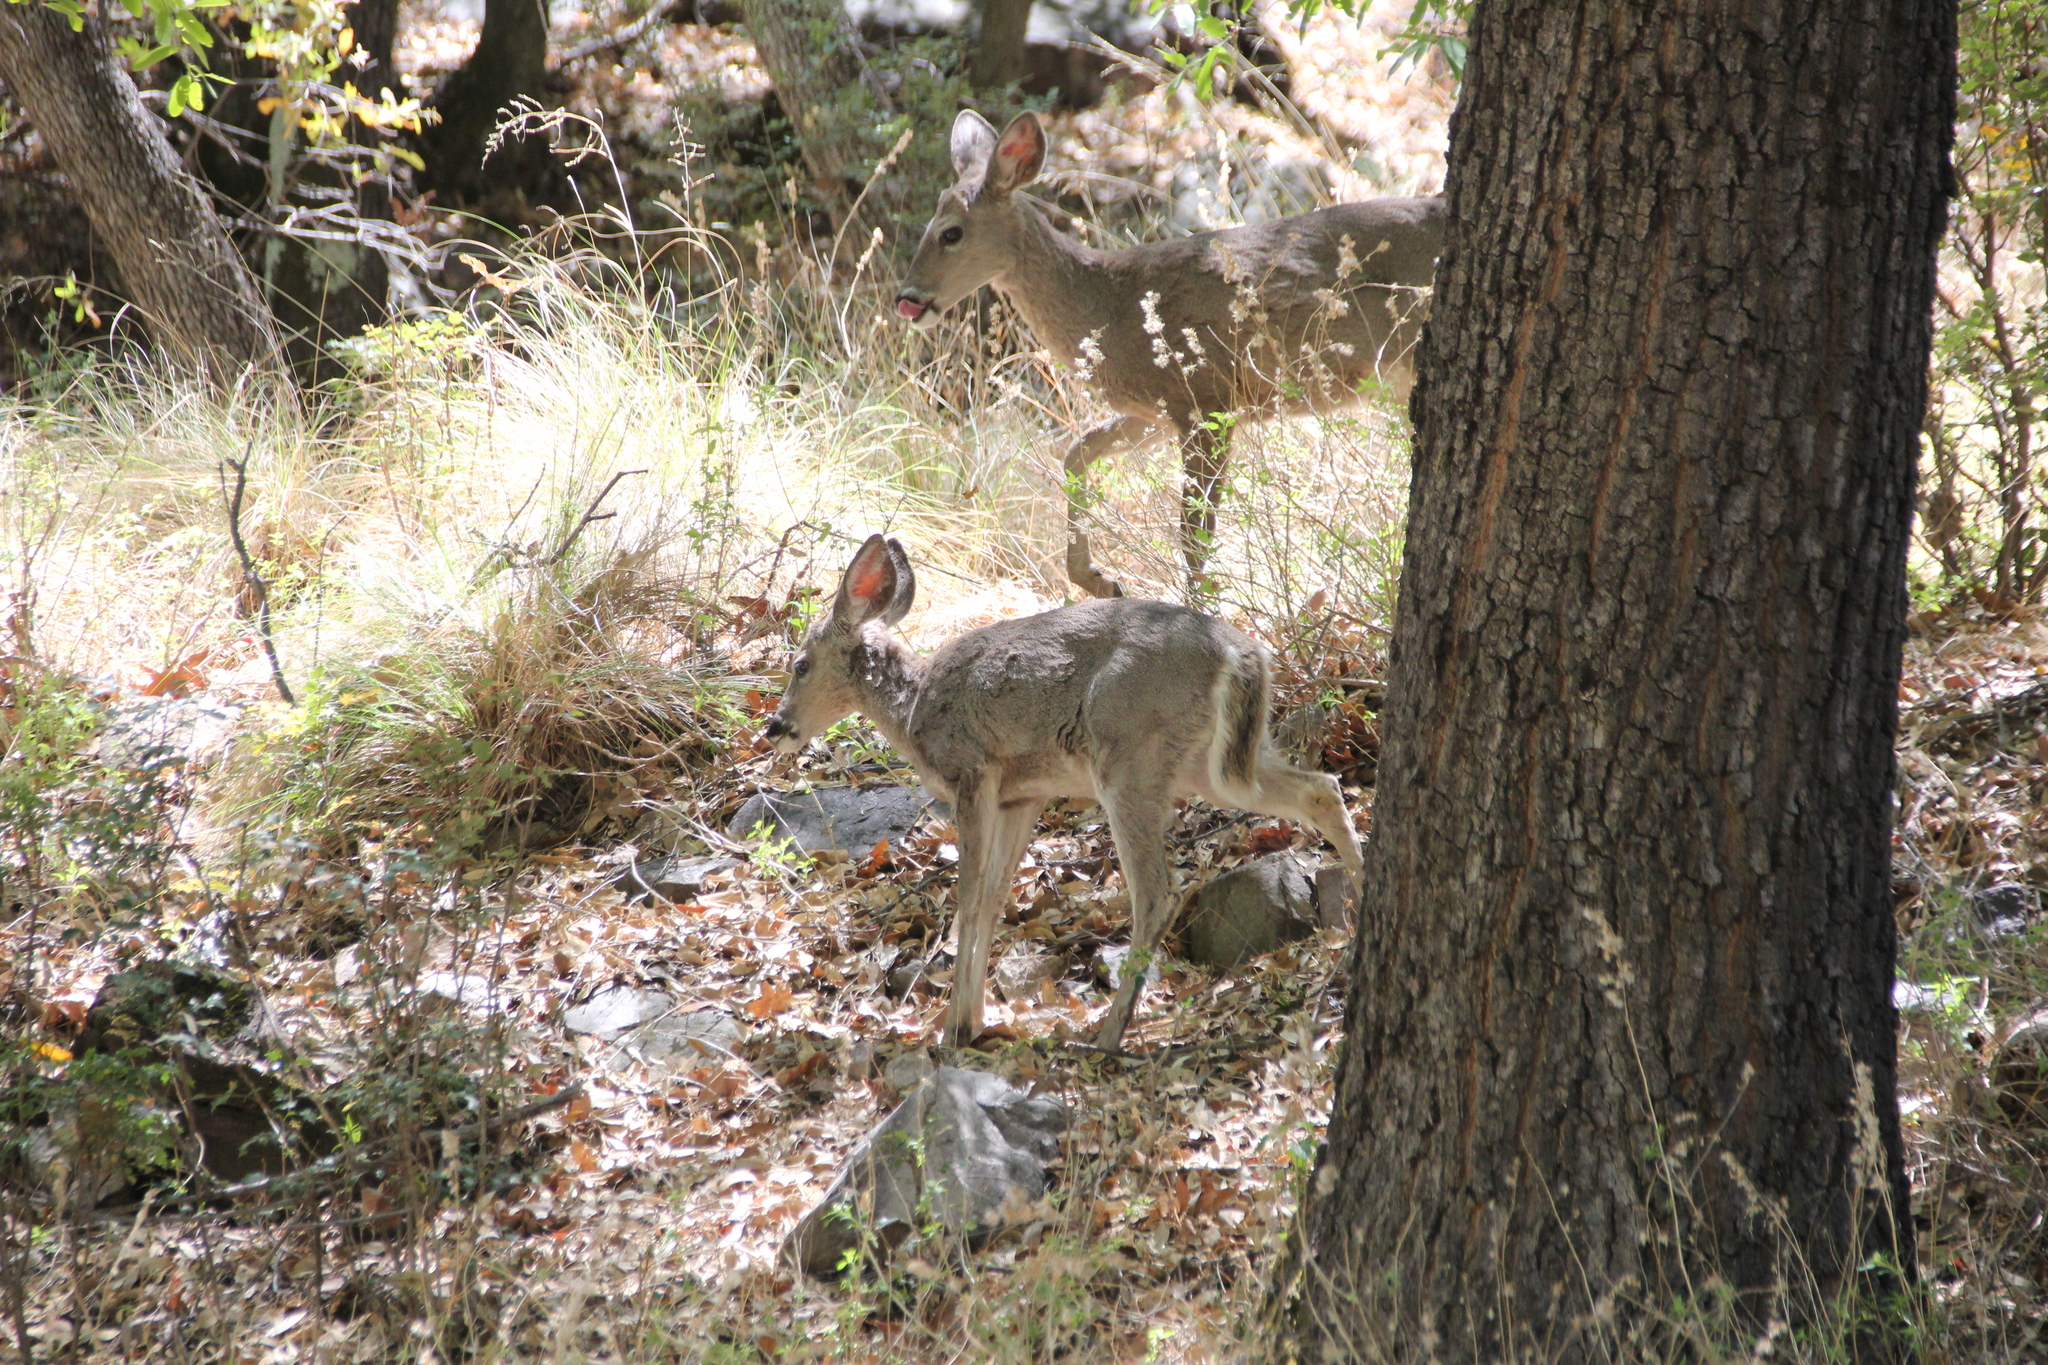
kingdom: Animalia
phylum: Chordata
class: Mammalia
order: Artiodactyla
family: Cervidae
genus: Odocoileus
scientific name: Odocoileus virginianus
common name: White-tailed deer
